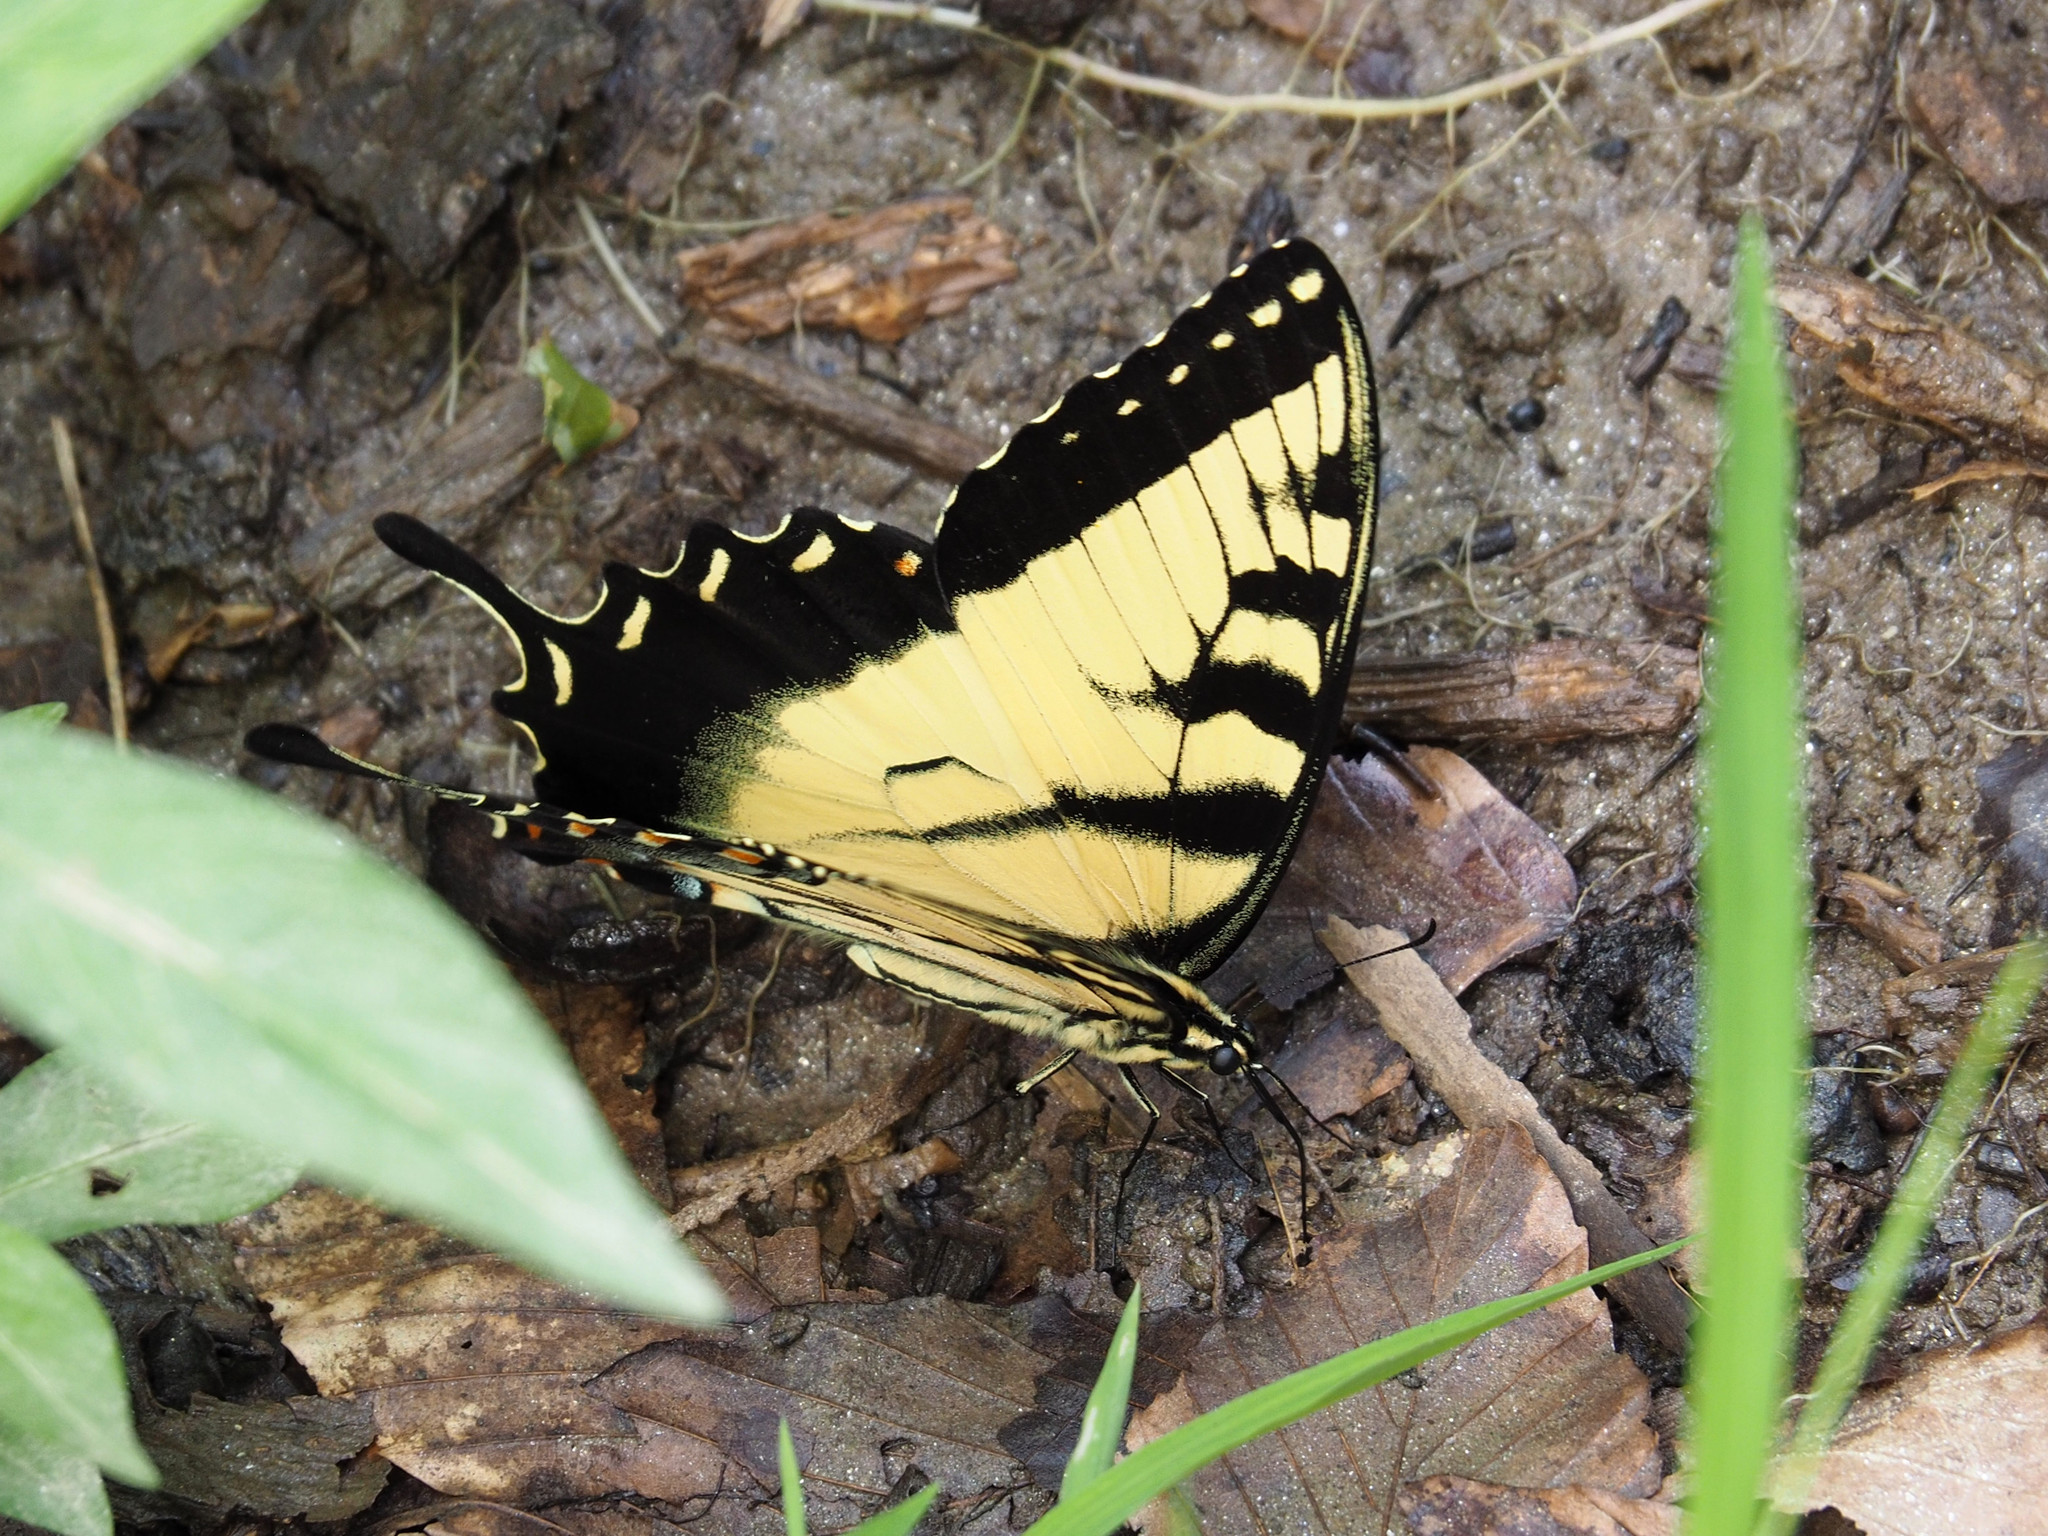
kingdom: Animalia
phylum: Arthropoda
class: Insecta
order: Lepidoptera
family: Papilionidae
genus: Papilio
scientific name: Papilio glaucus
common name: Tiger swallowtail
